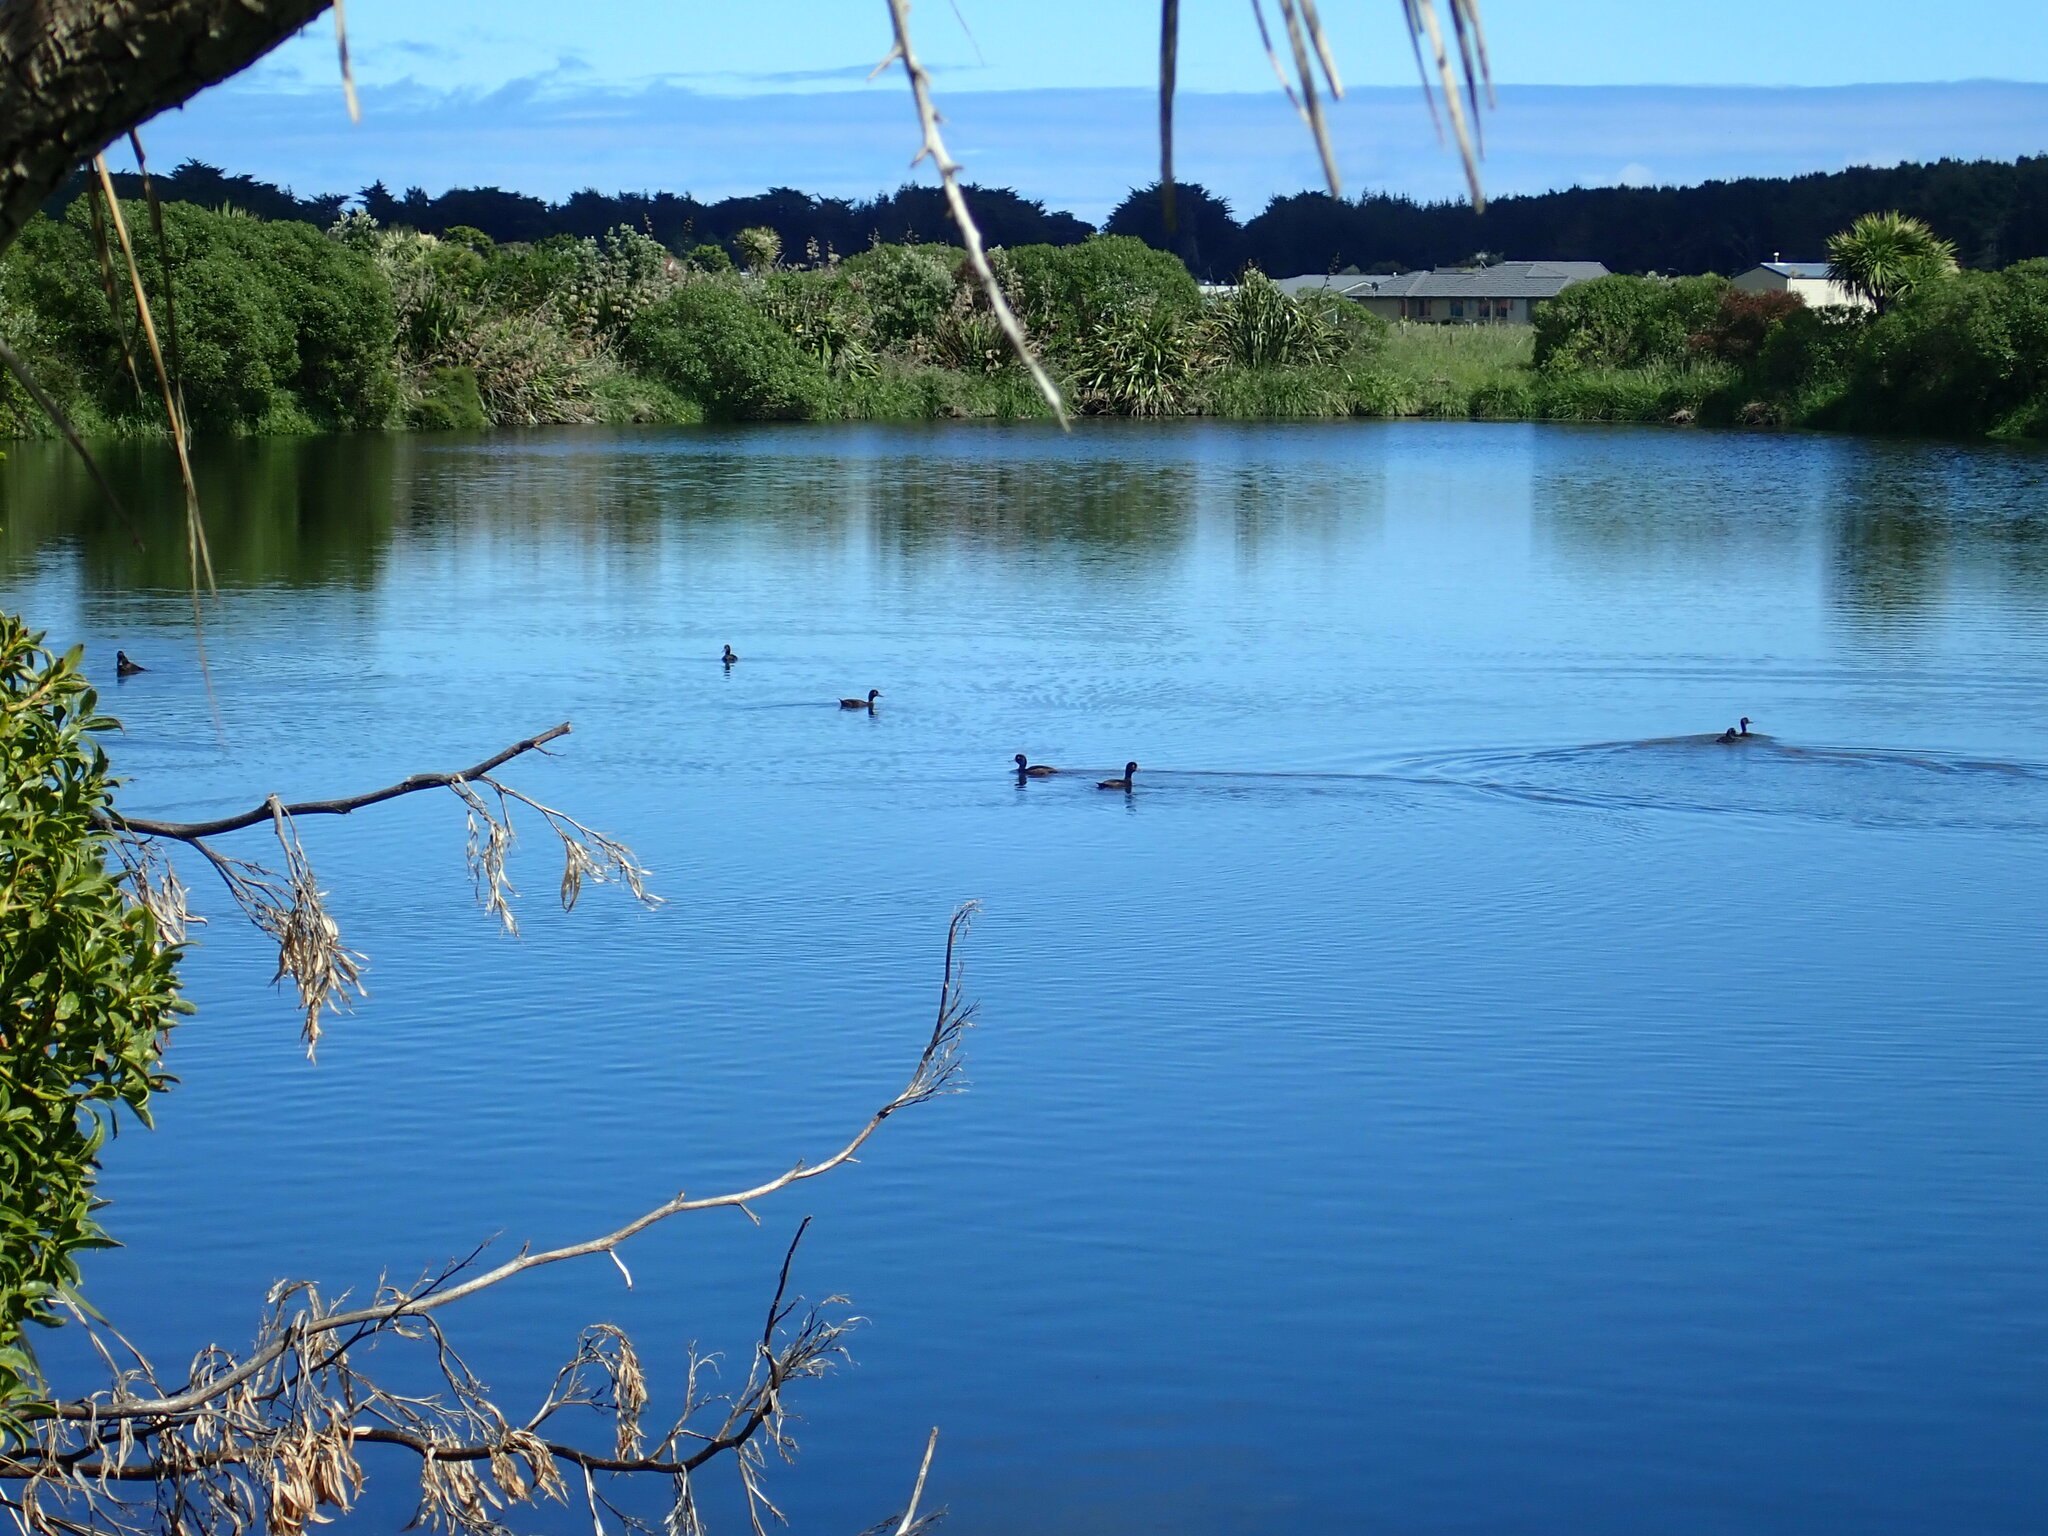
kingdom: Animalia
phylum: Chordata
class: Aves
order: Anseriformes
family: Anatidae
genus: Aythya
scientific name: Aythya novaeseelandiae
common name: New zealand scaup
